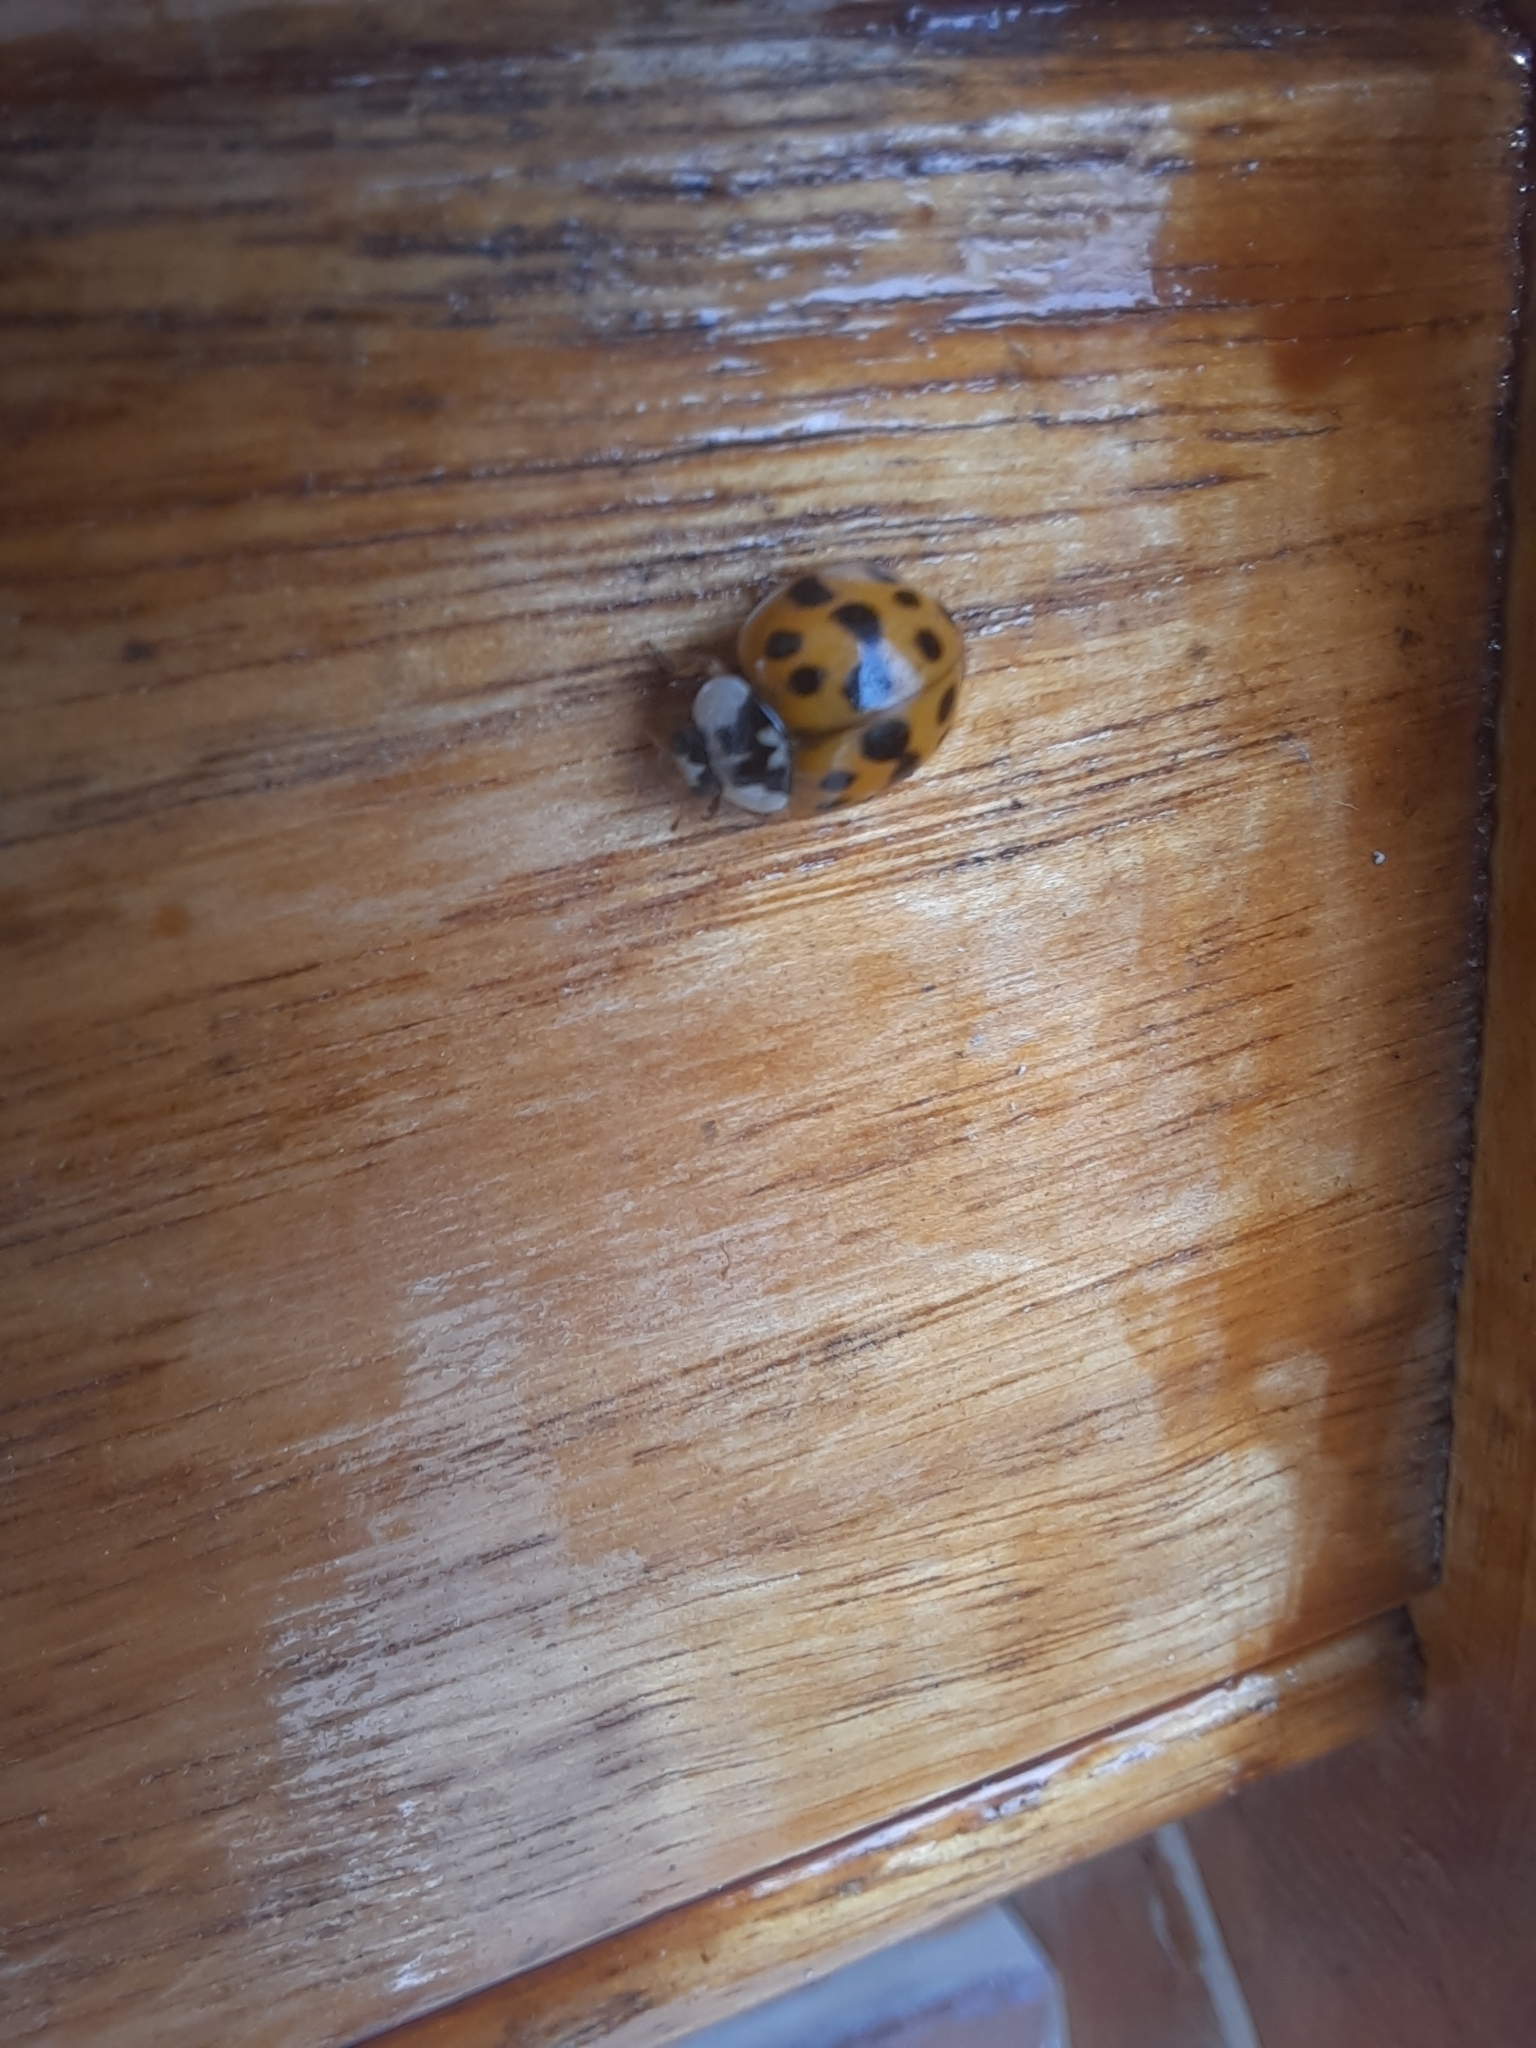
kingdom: Animalia
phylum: Arthropoda
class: Insecta
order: Coleoptera
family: Coccinellidae
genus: Harmonia
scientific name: Harmonia axyridis
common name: Harlequin ladybird
